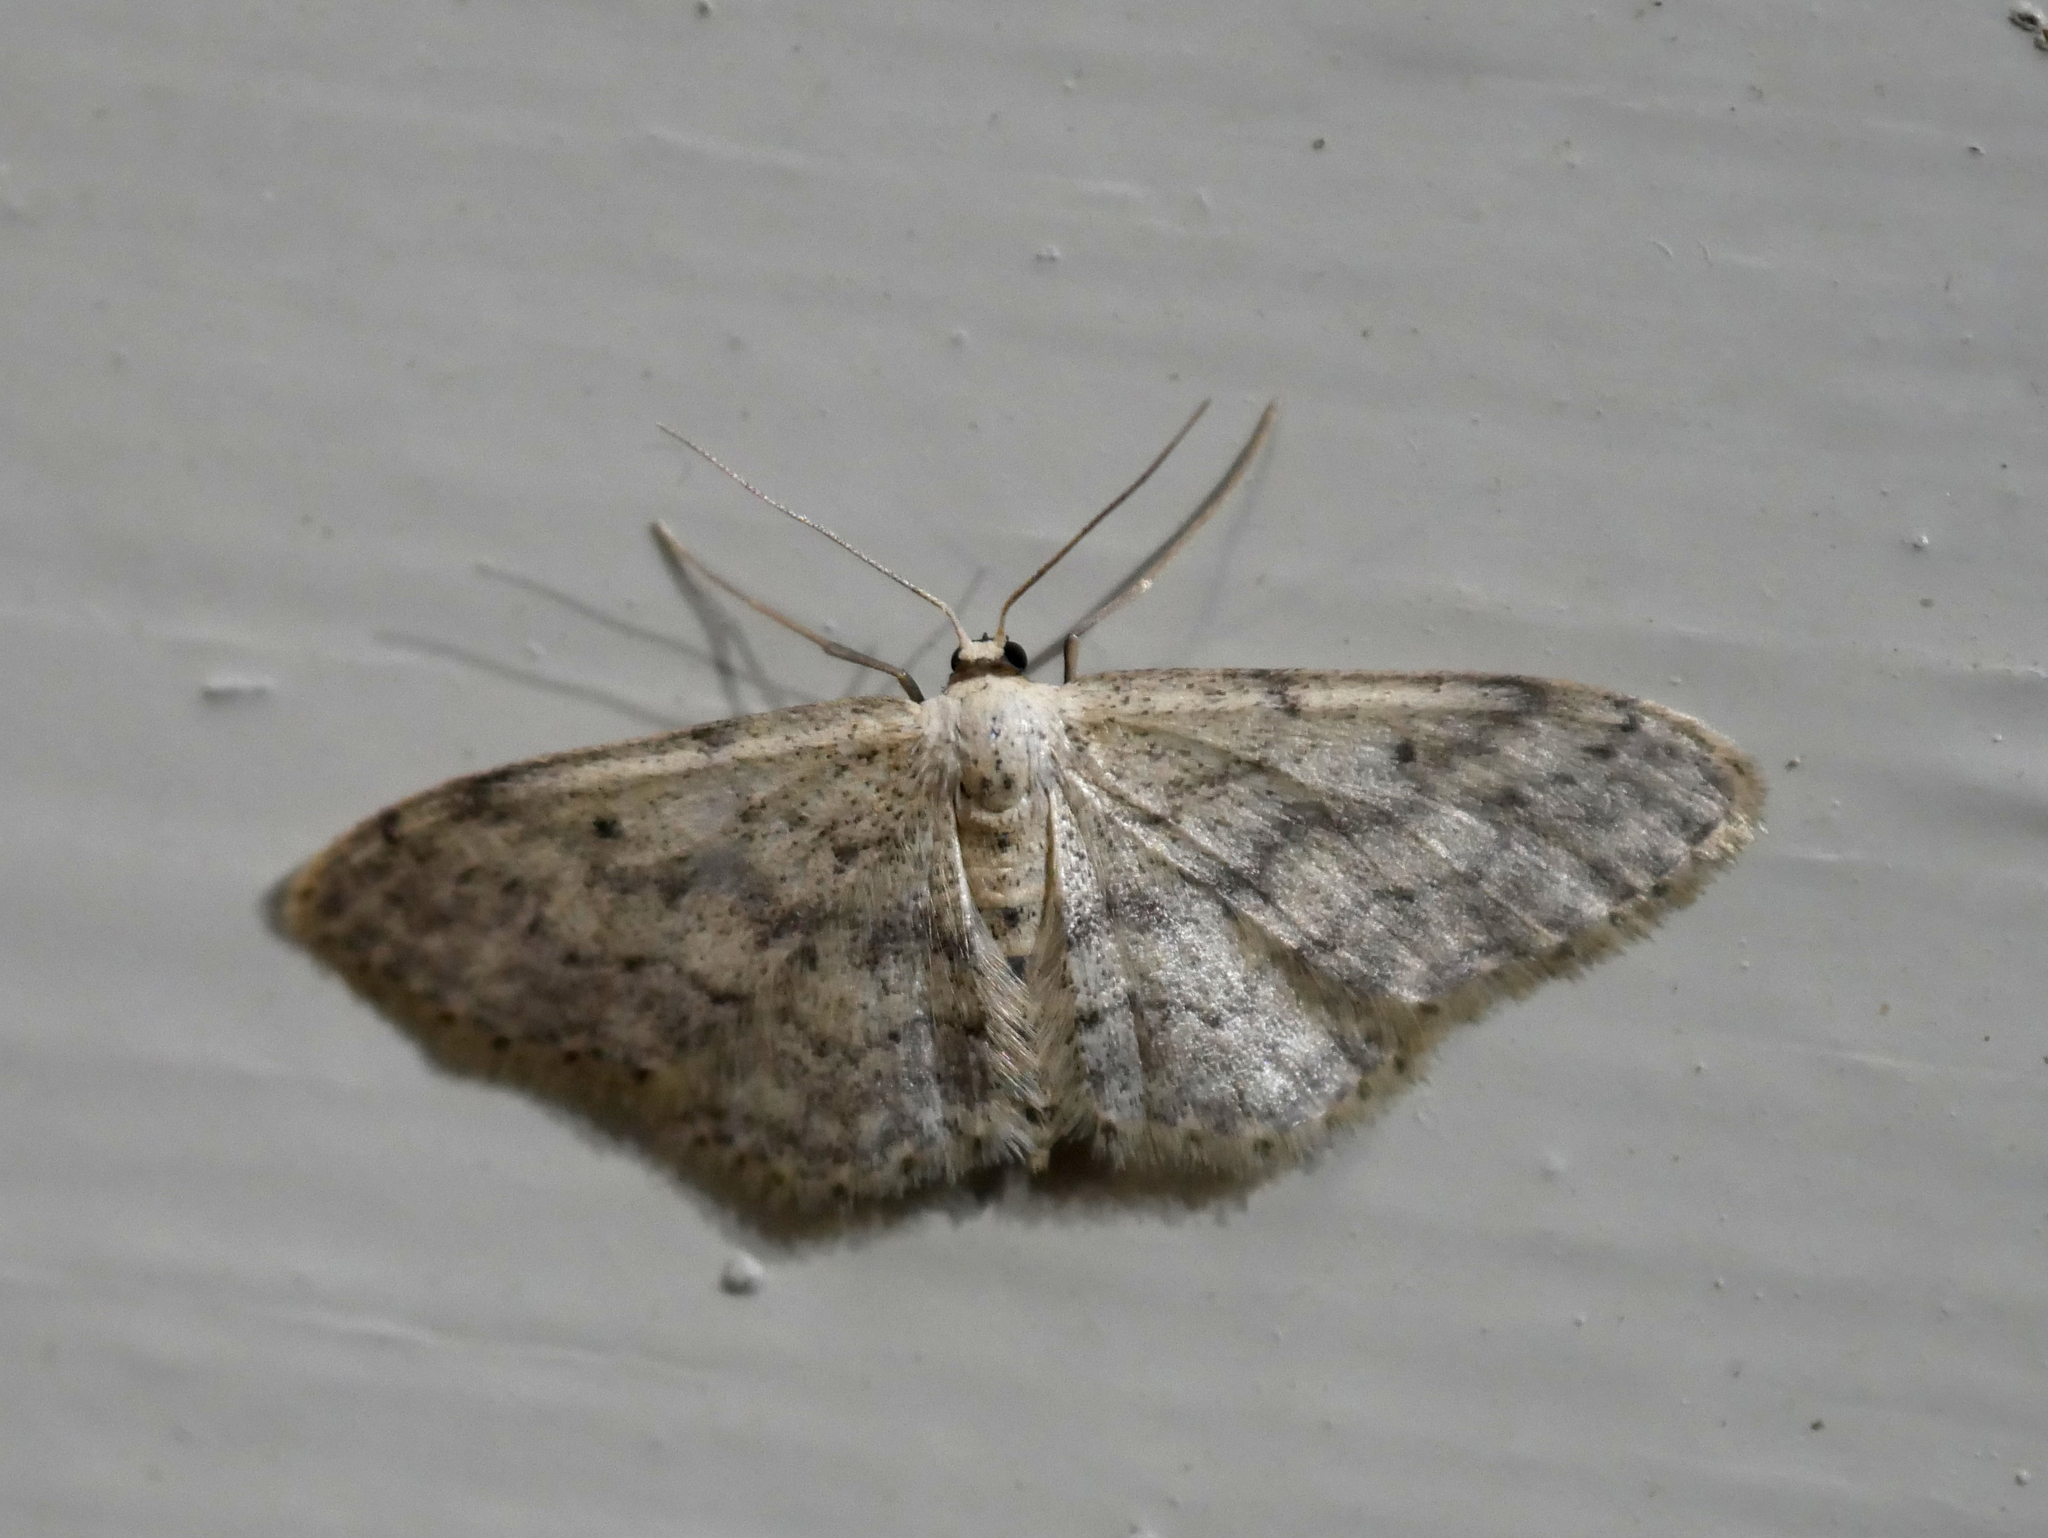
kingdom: Animalia
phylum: Arthropoda
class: Insecta
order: Lepidoptera
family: Geometridae
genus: Idaea
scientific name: Idaea seriata
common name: Small dusty wave
